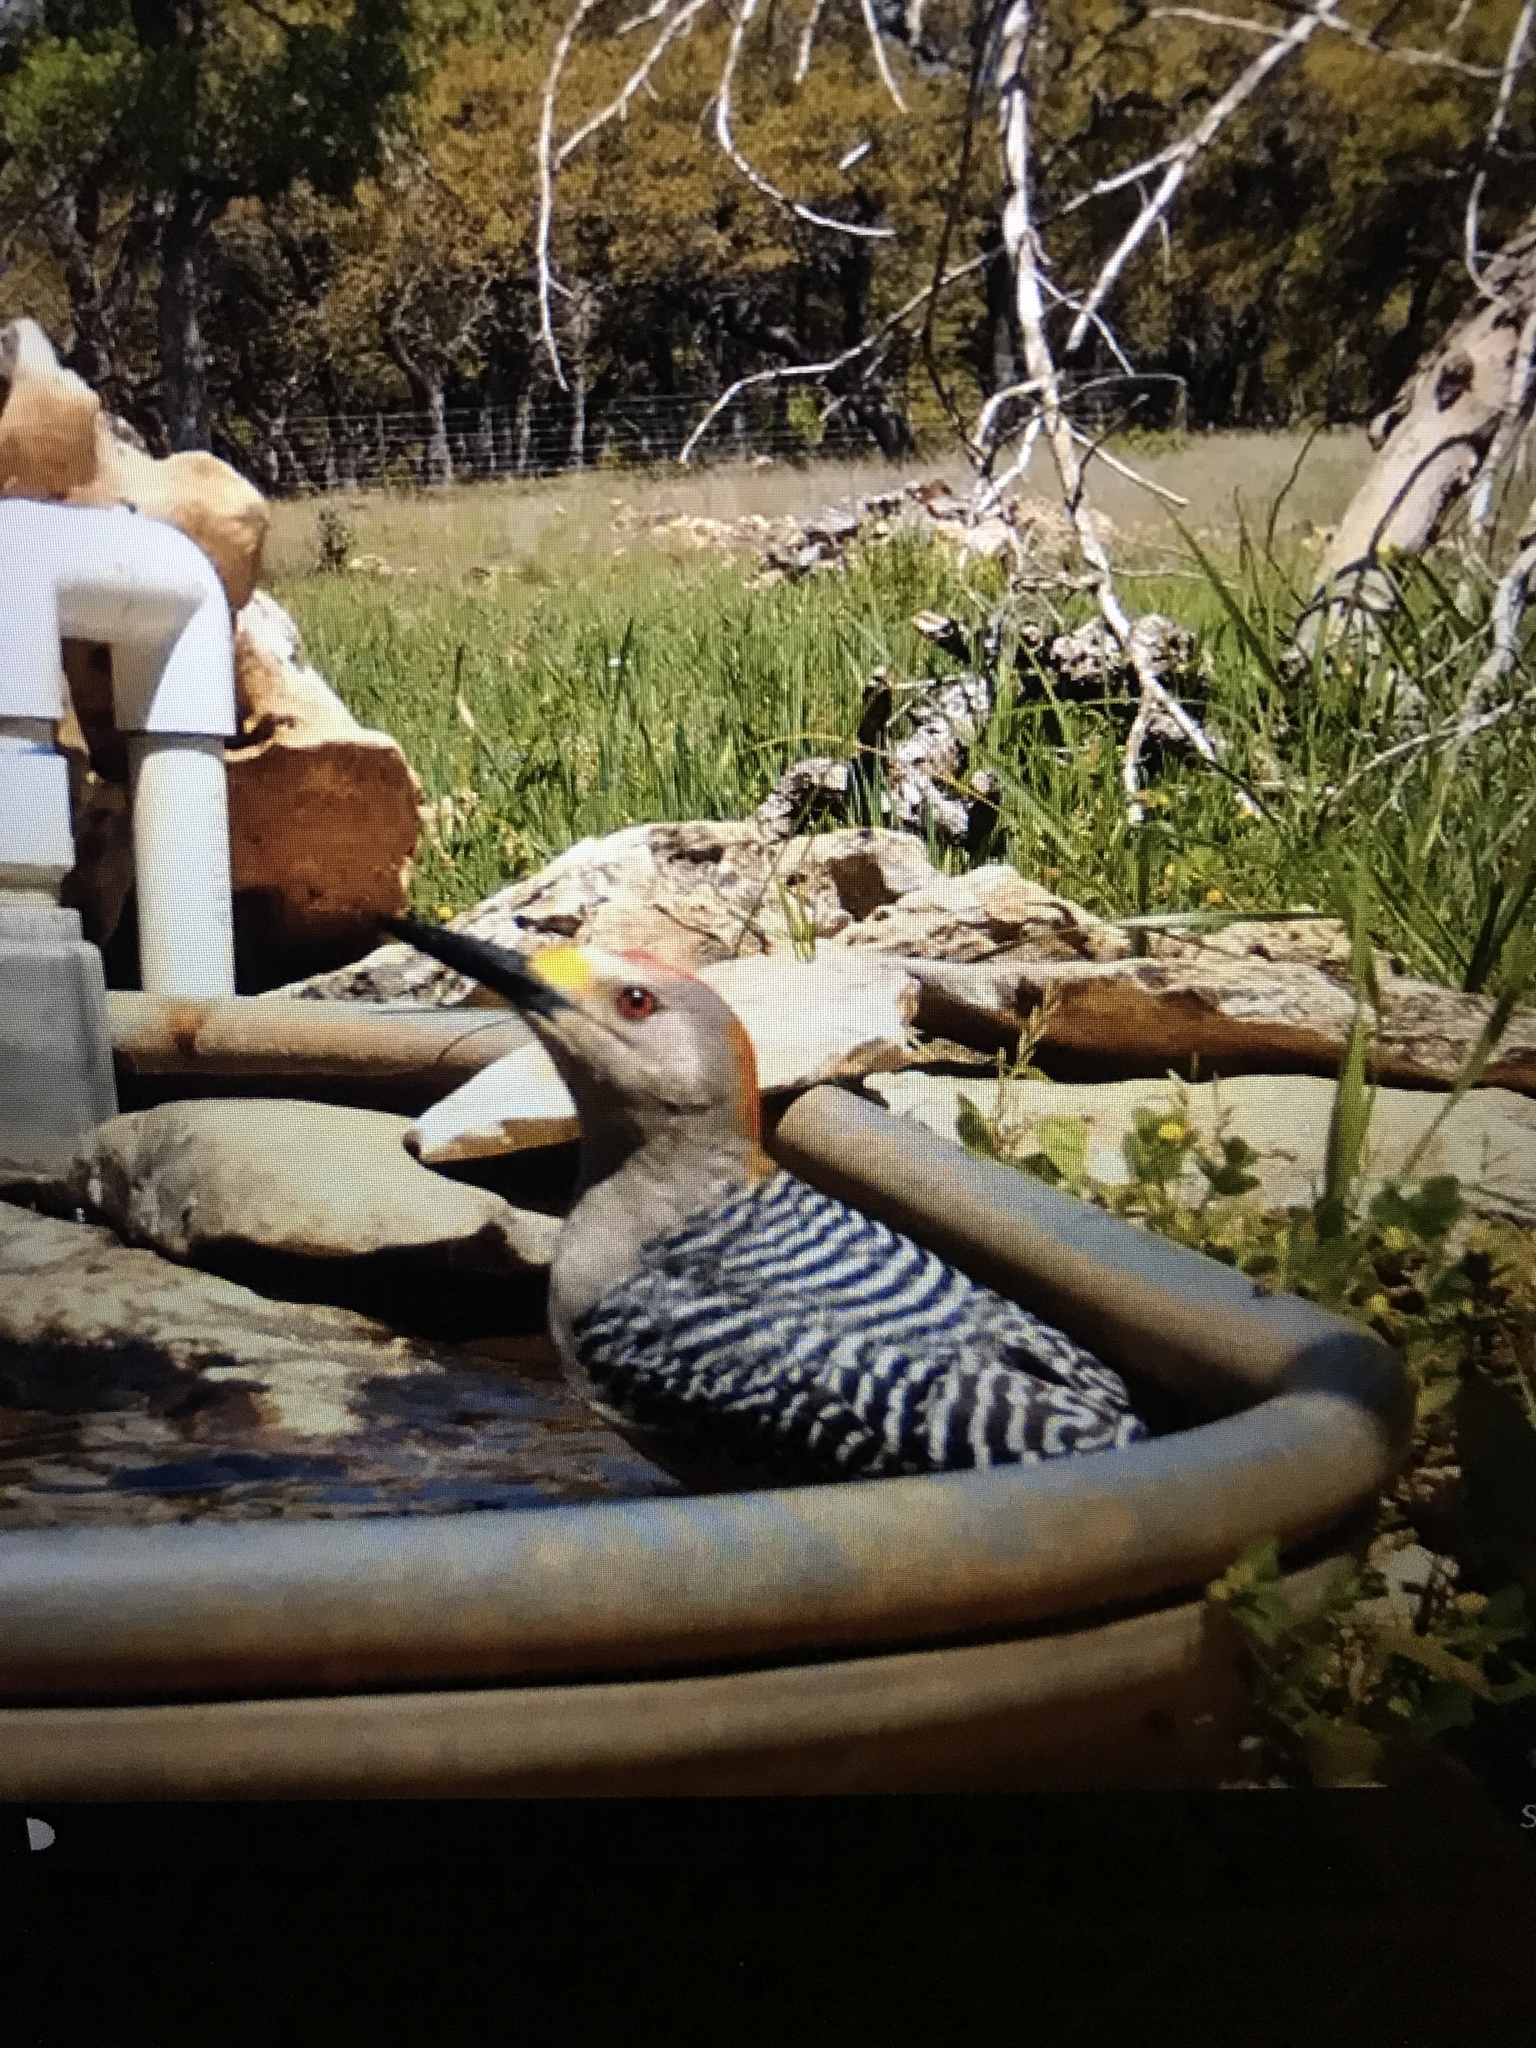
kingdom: Animalia
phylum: Chordata
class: Aves
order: Piciformes
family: Picidae
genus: Melanerpes
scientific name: Melanerpes aurifrons
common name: Golden-fronted woodpecker
